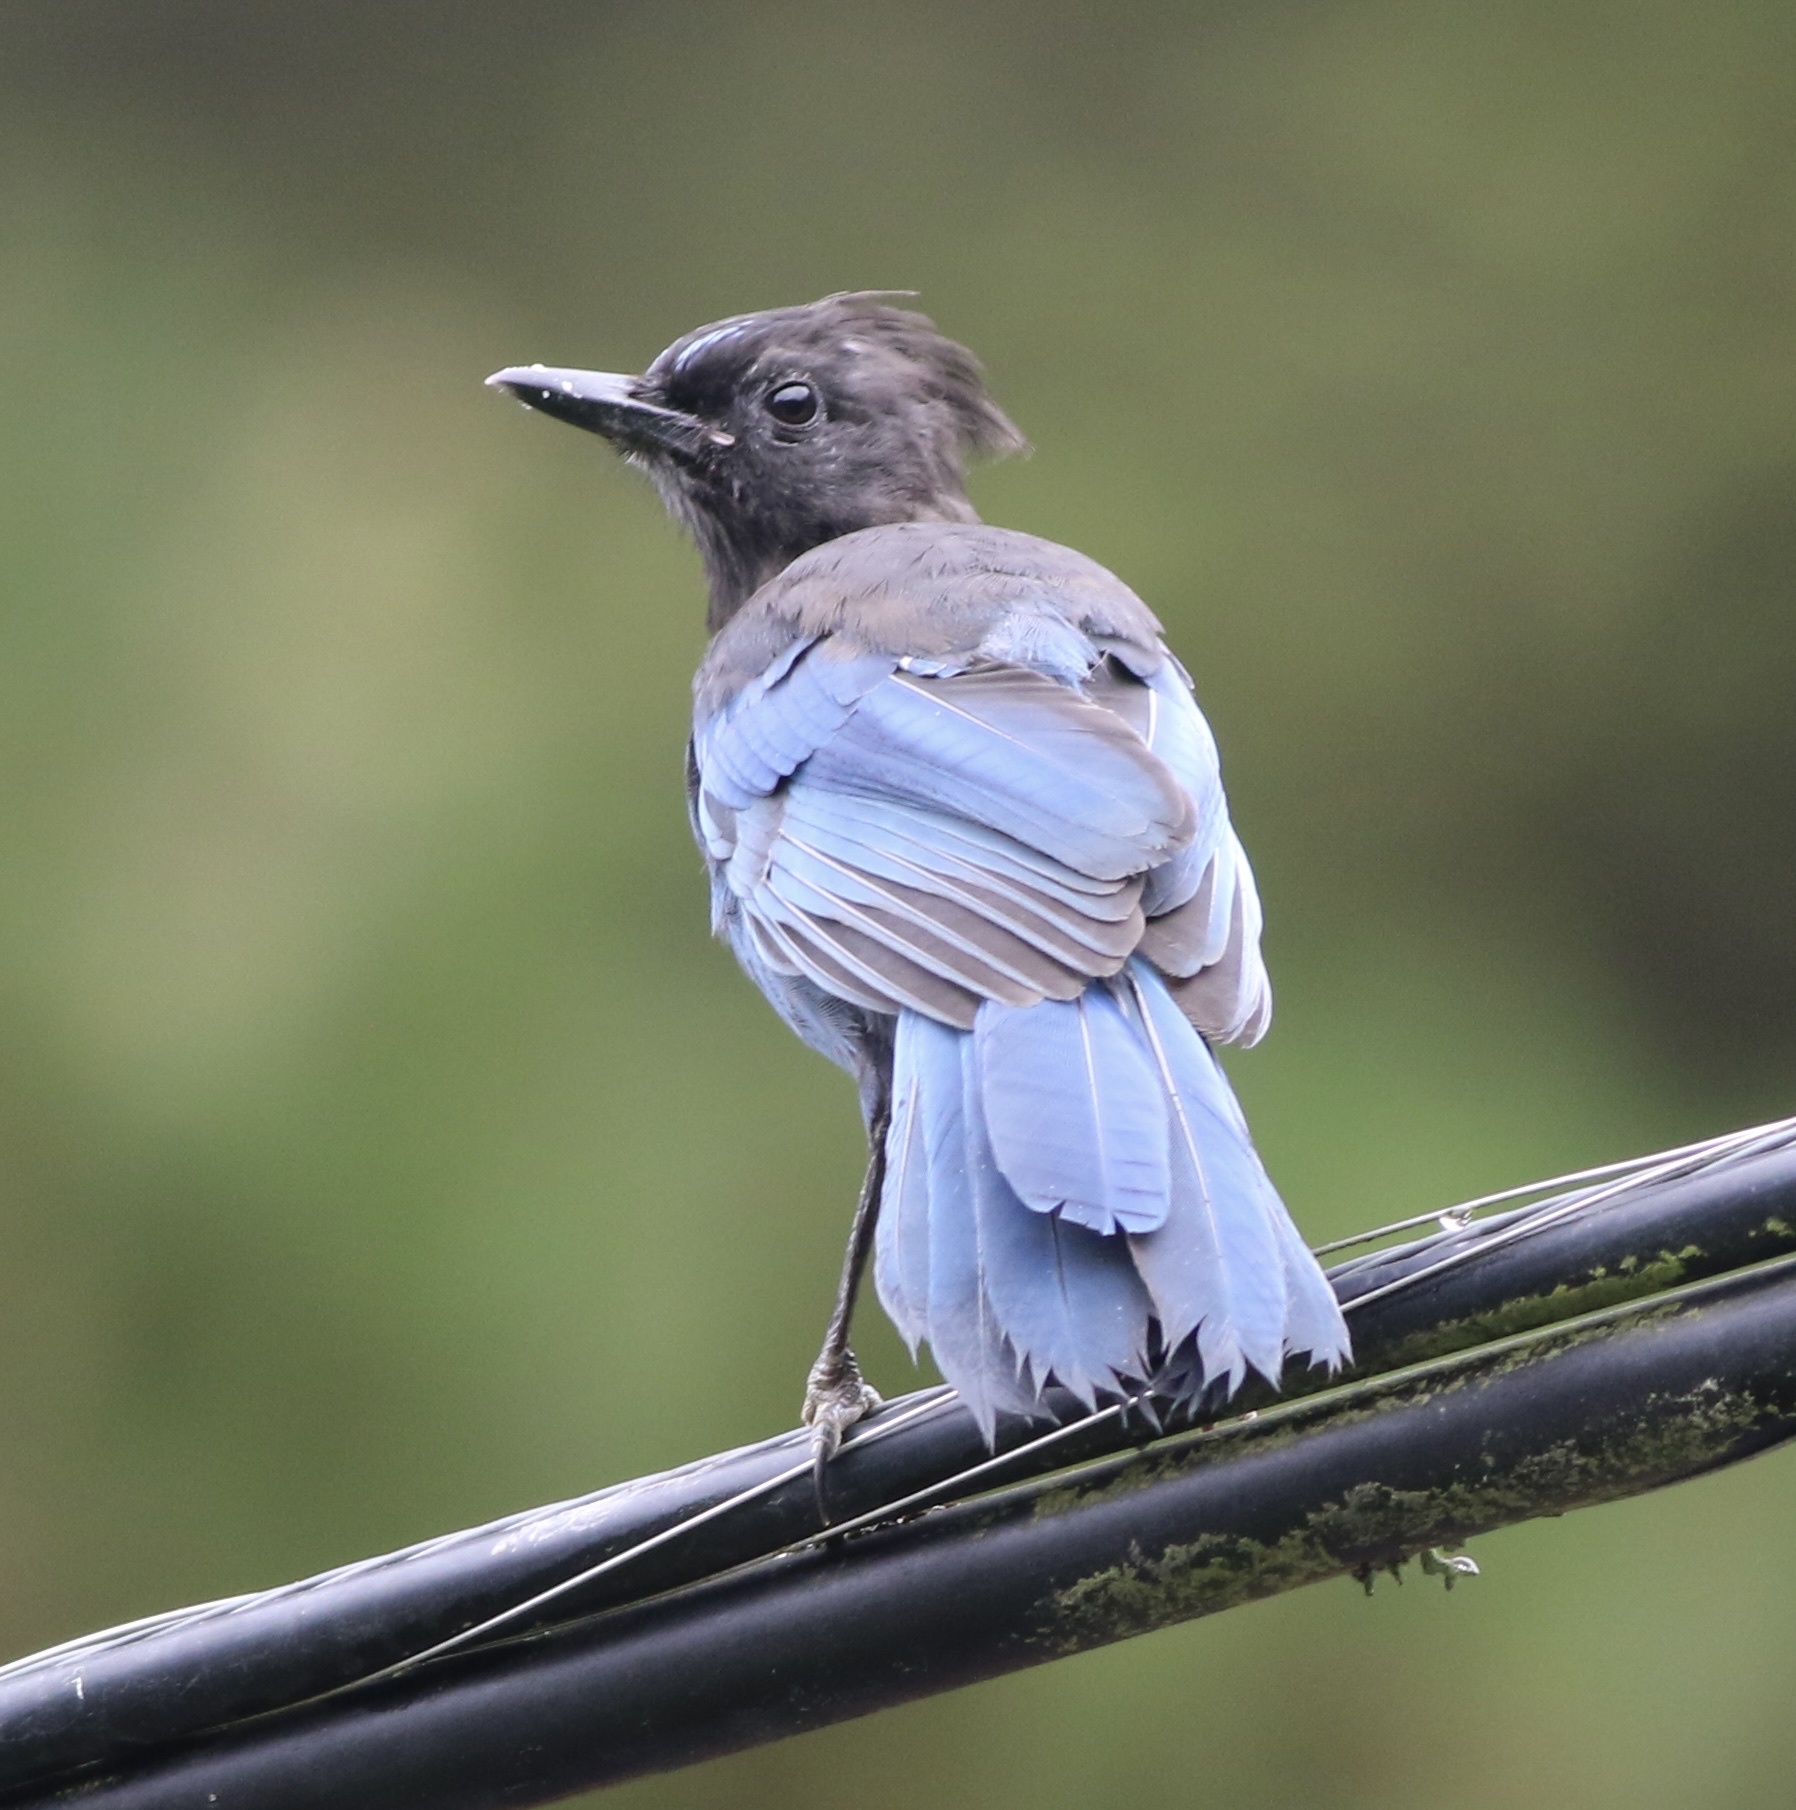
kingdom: Animalia
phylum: Chordata
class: Aves
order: Passeriformes
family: Corvidae
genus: Cyanocitta
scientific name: Cyanocitta stelleri
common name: Steller's jay
